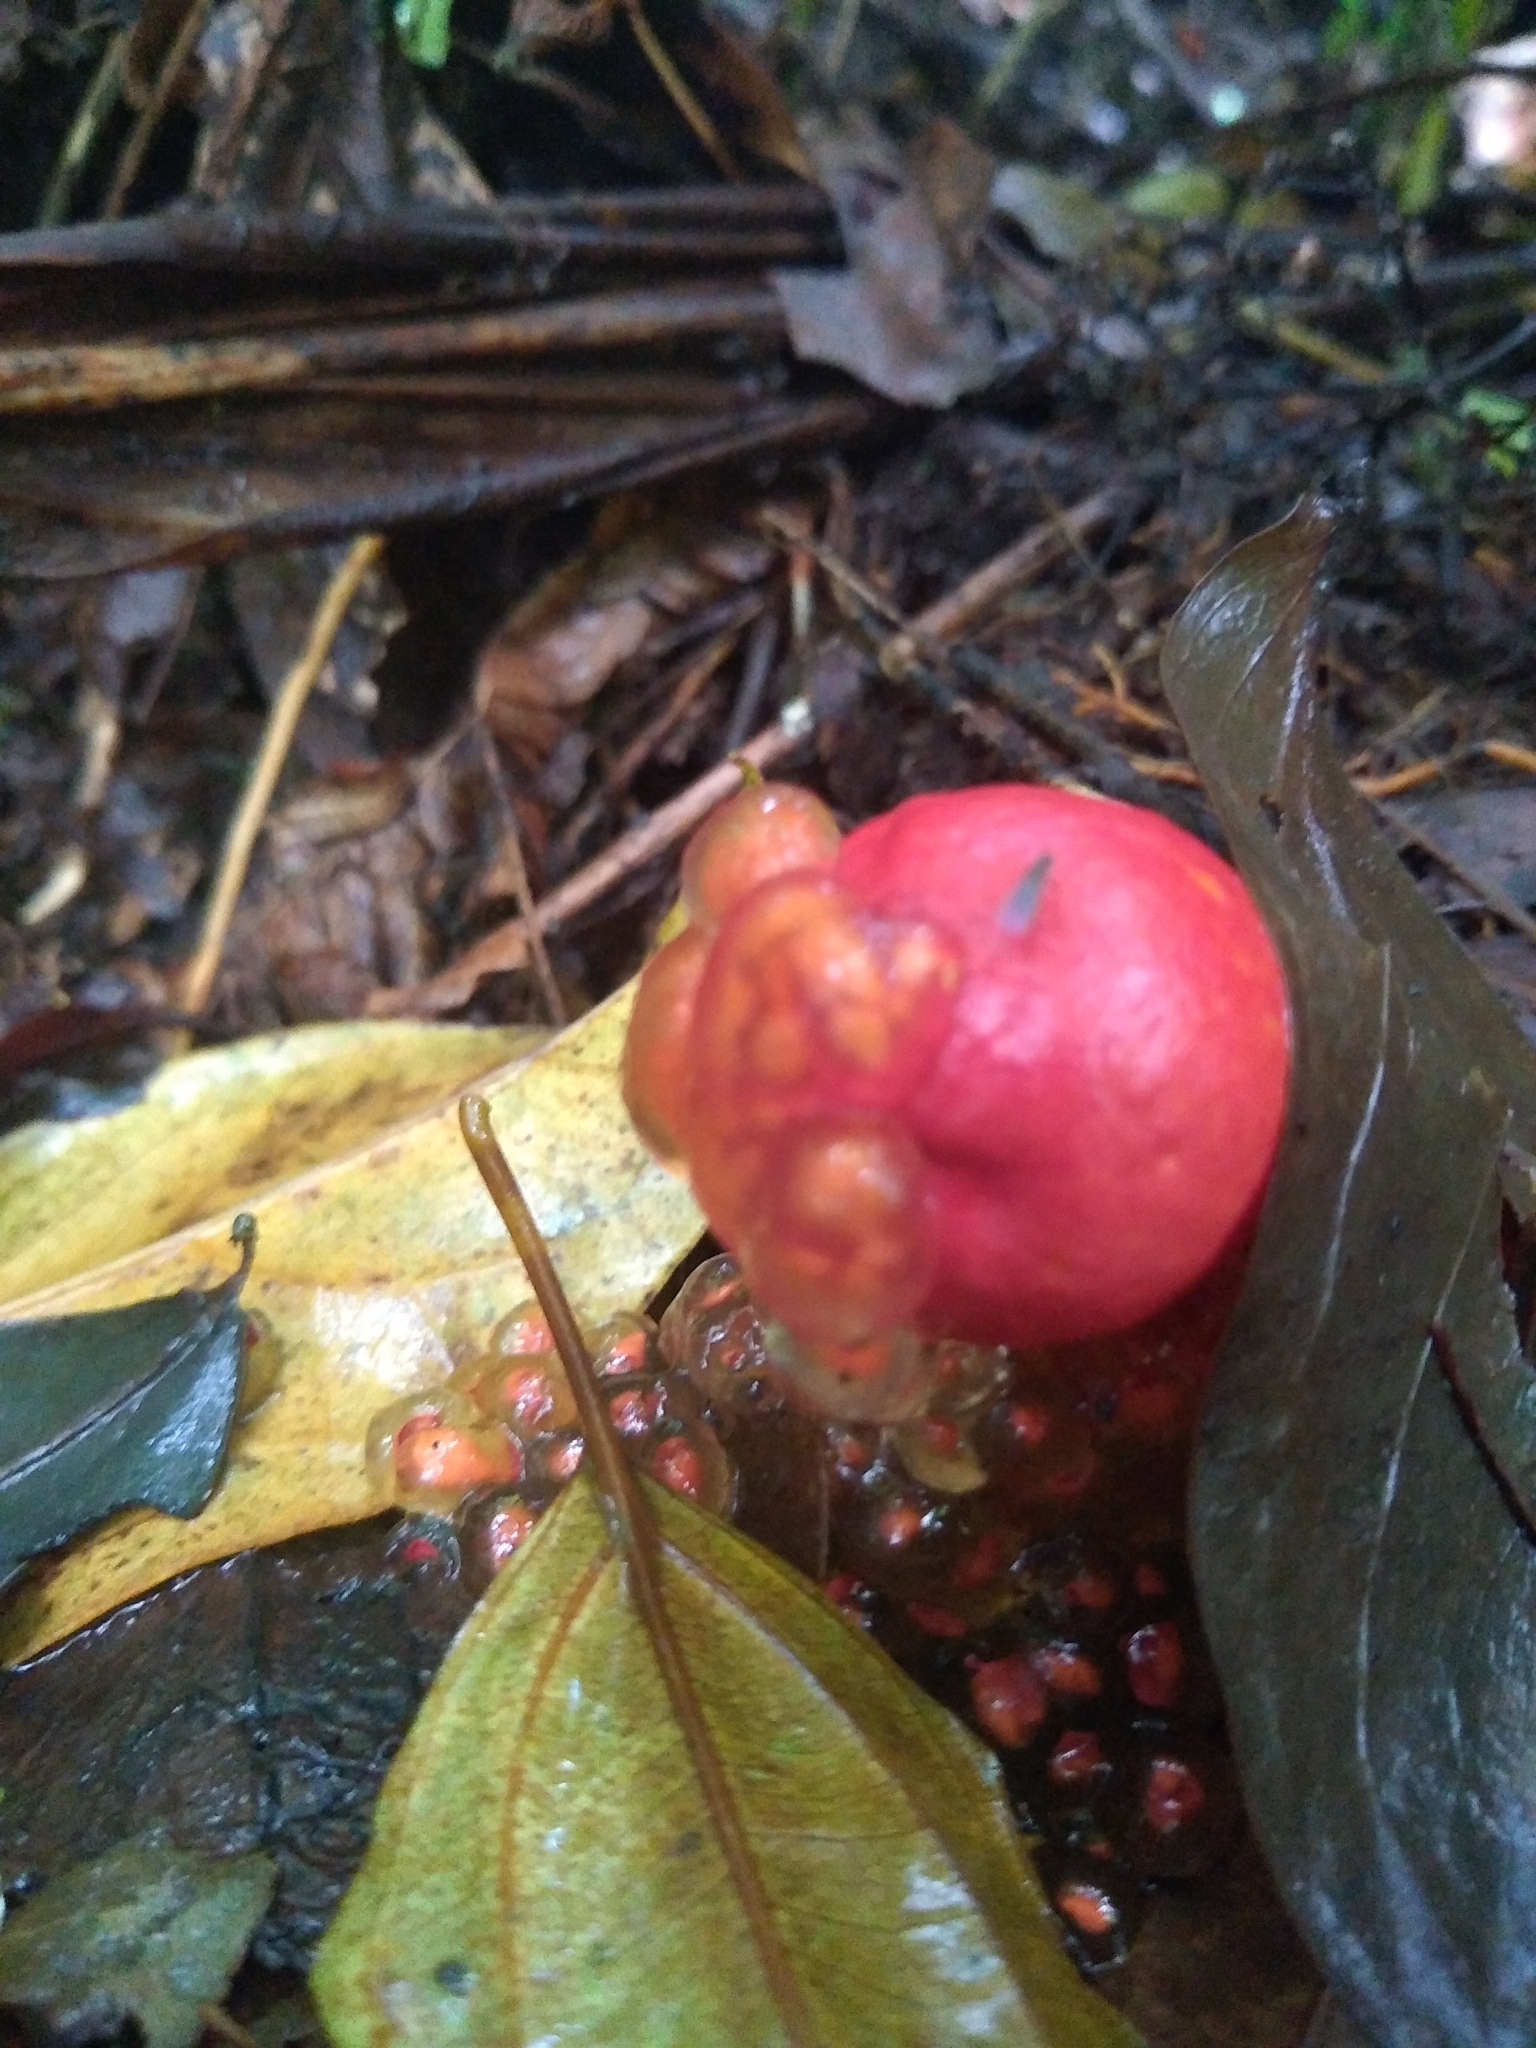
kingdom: Fungi
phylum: Basidiomycota
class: Agaricomycetes
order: Boletales
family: Calostomataceae
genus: Calostoma
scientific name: Calostoma cinnabarinum
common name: Stalked puffball-in-aspic
